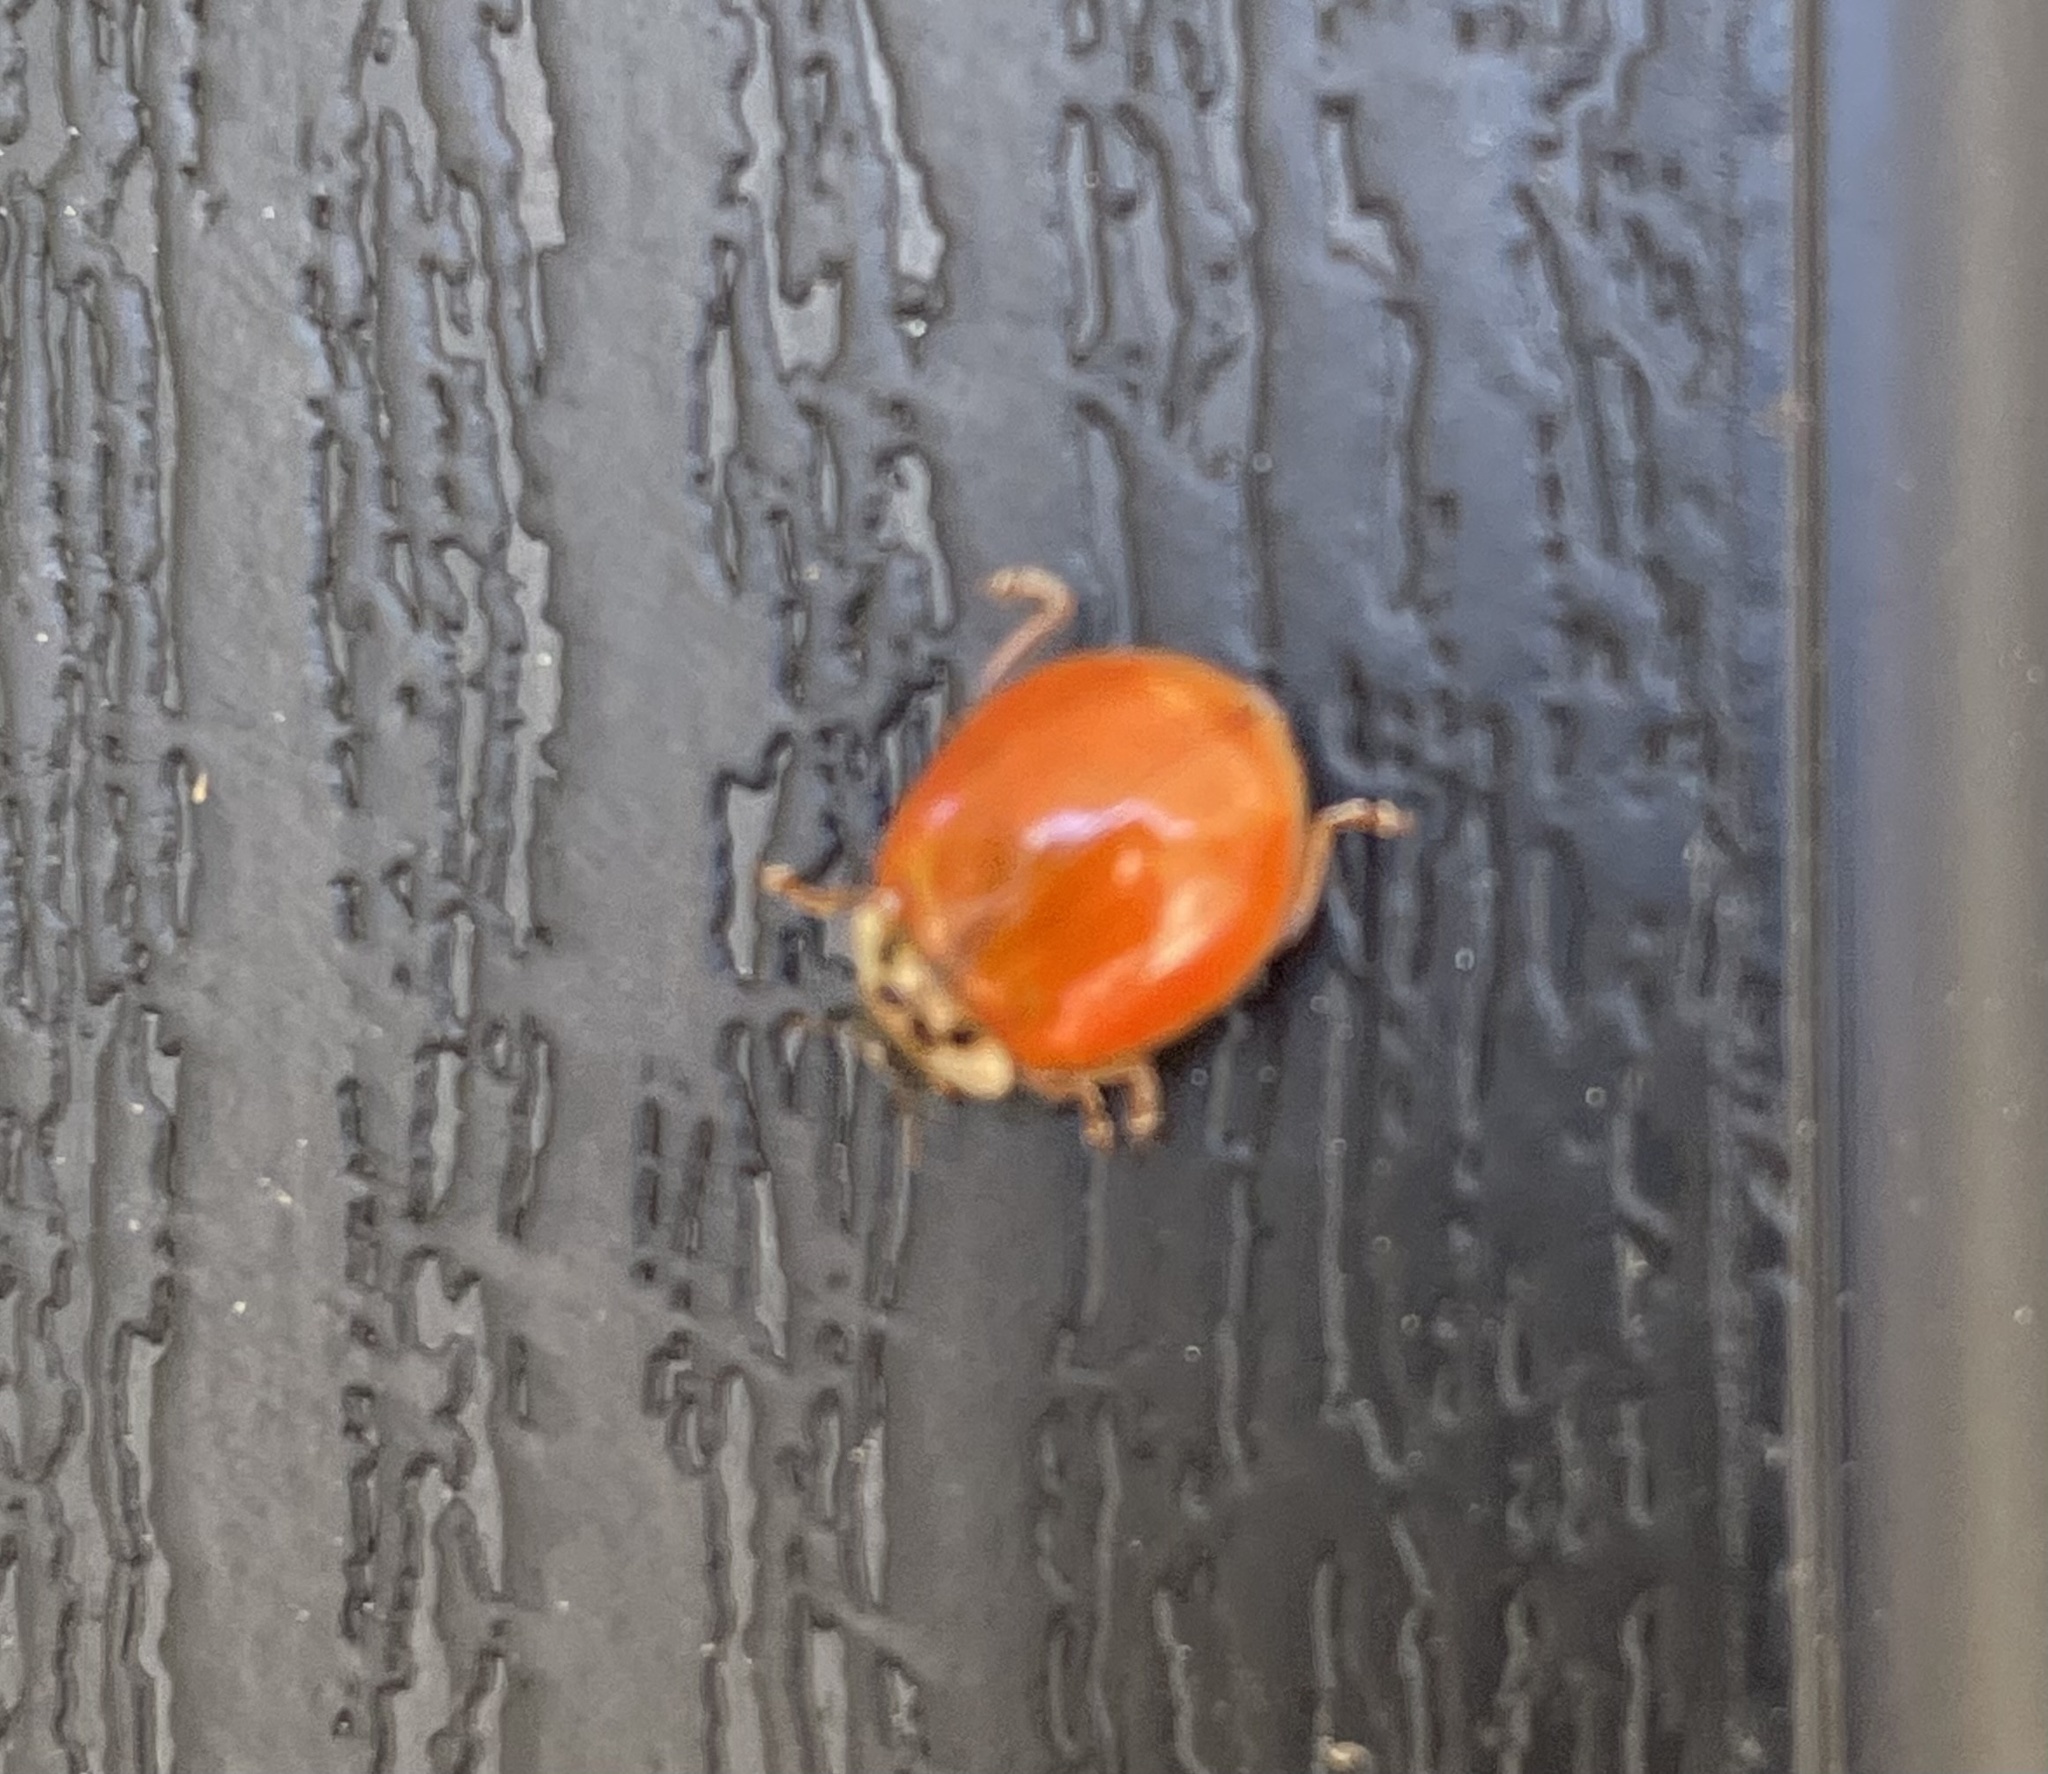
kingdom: Animalia
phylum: Arthropoda
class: Insecta
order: Coleoptera
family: Coccinellidae
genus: Harmonia
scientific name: Harmonia axyridis
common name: Harlequin ladybird
